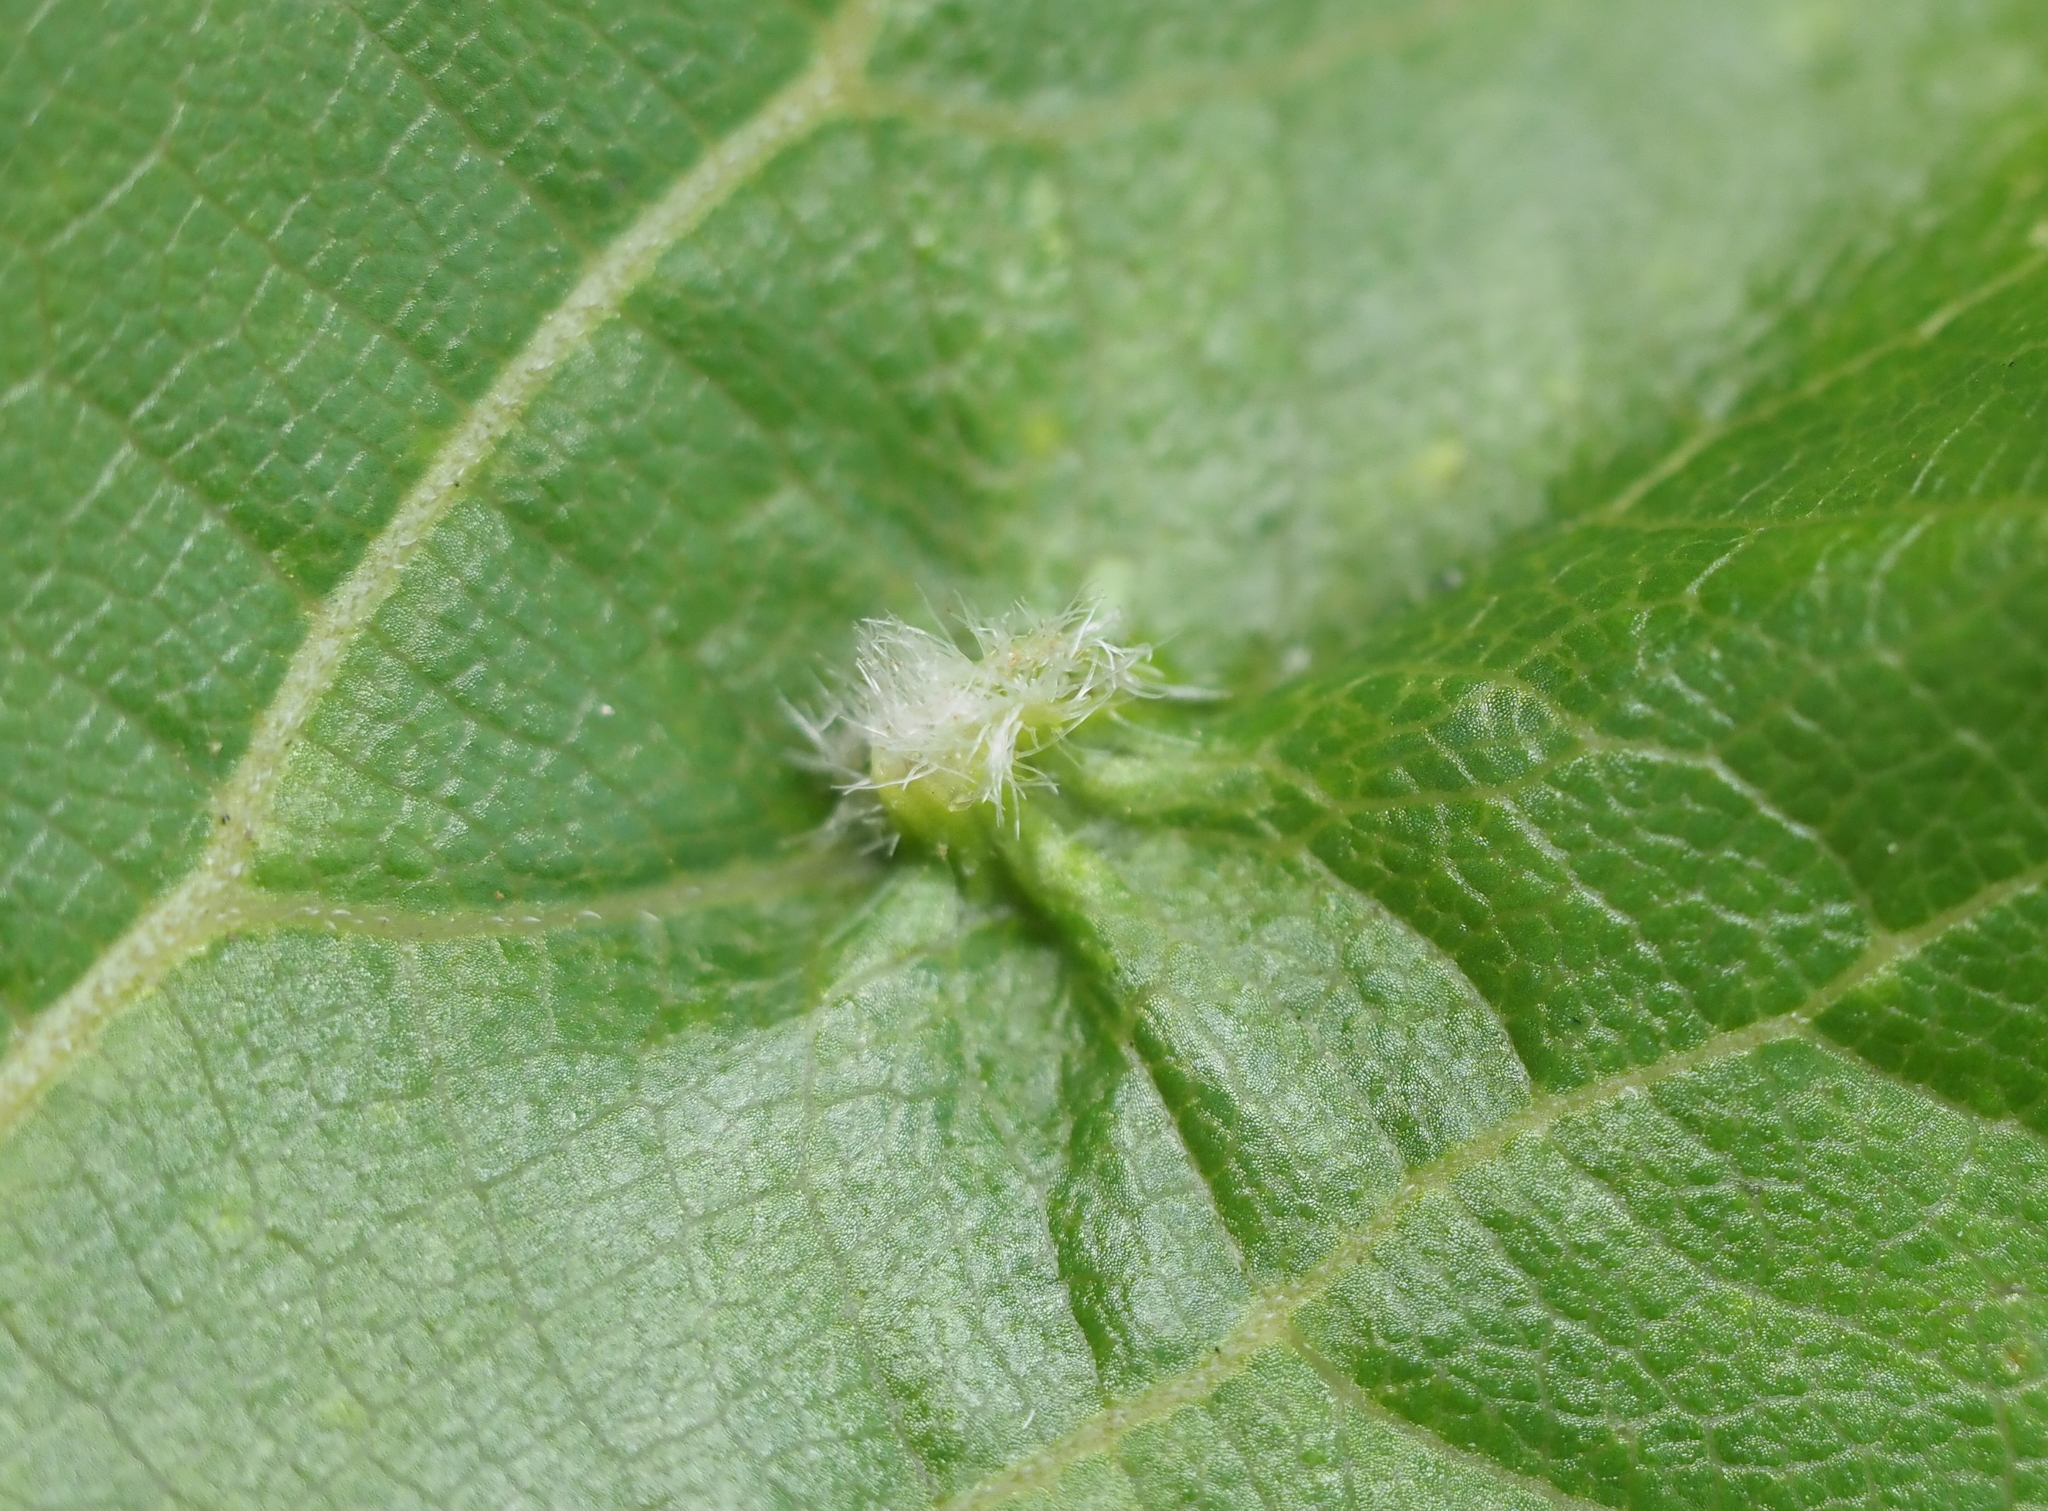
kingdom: Animalia
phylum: Arthropoda
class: Insecta
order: Hemiptera
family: Phylloxeridae
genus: Daktulosphaira
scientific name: Daktulosphaira vitifoliae
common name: Grape phylloxera
